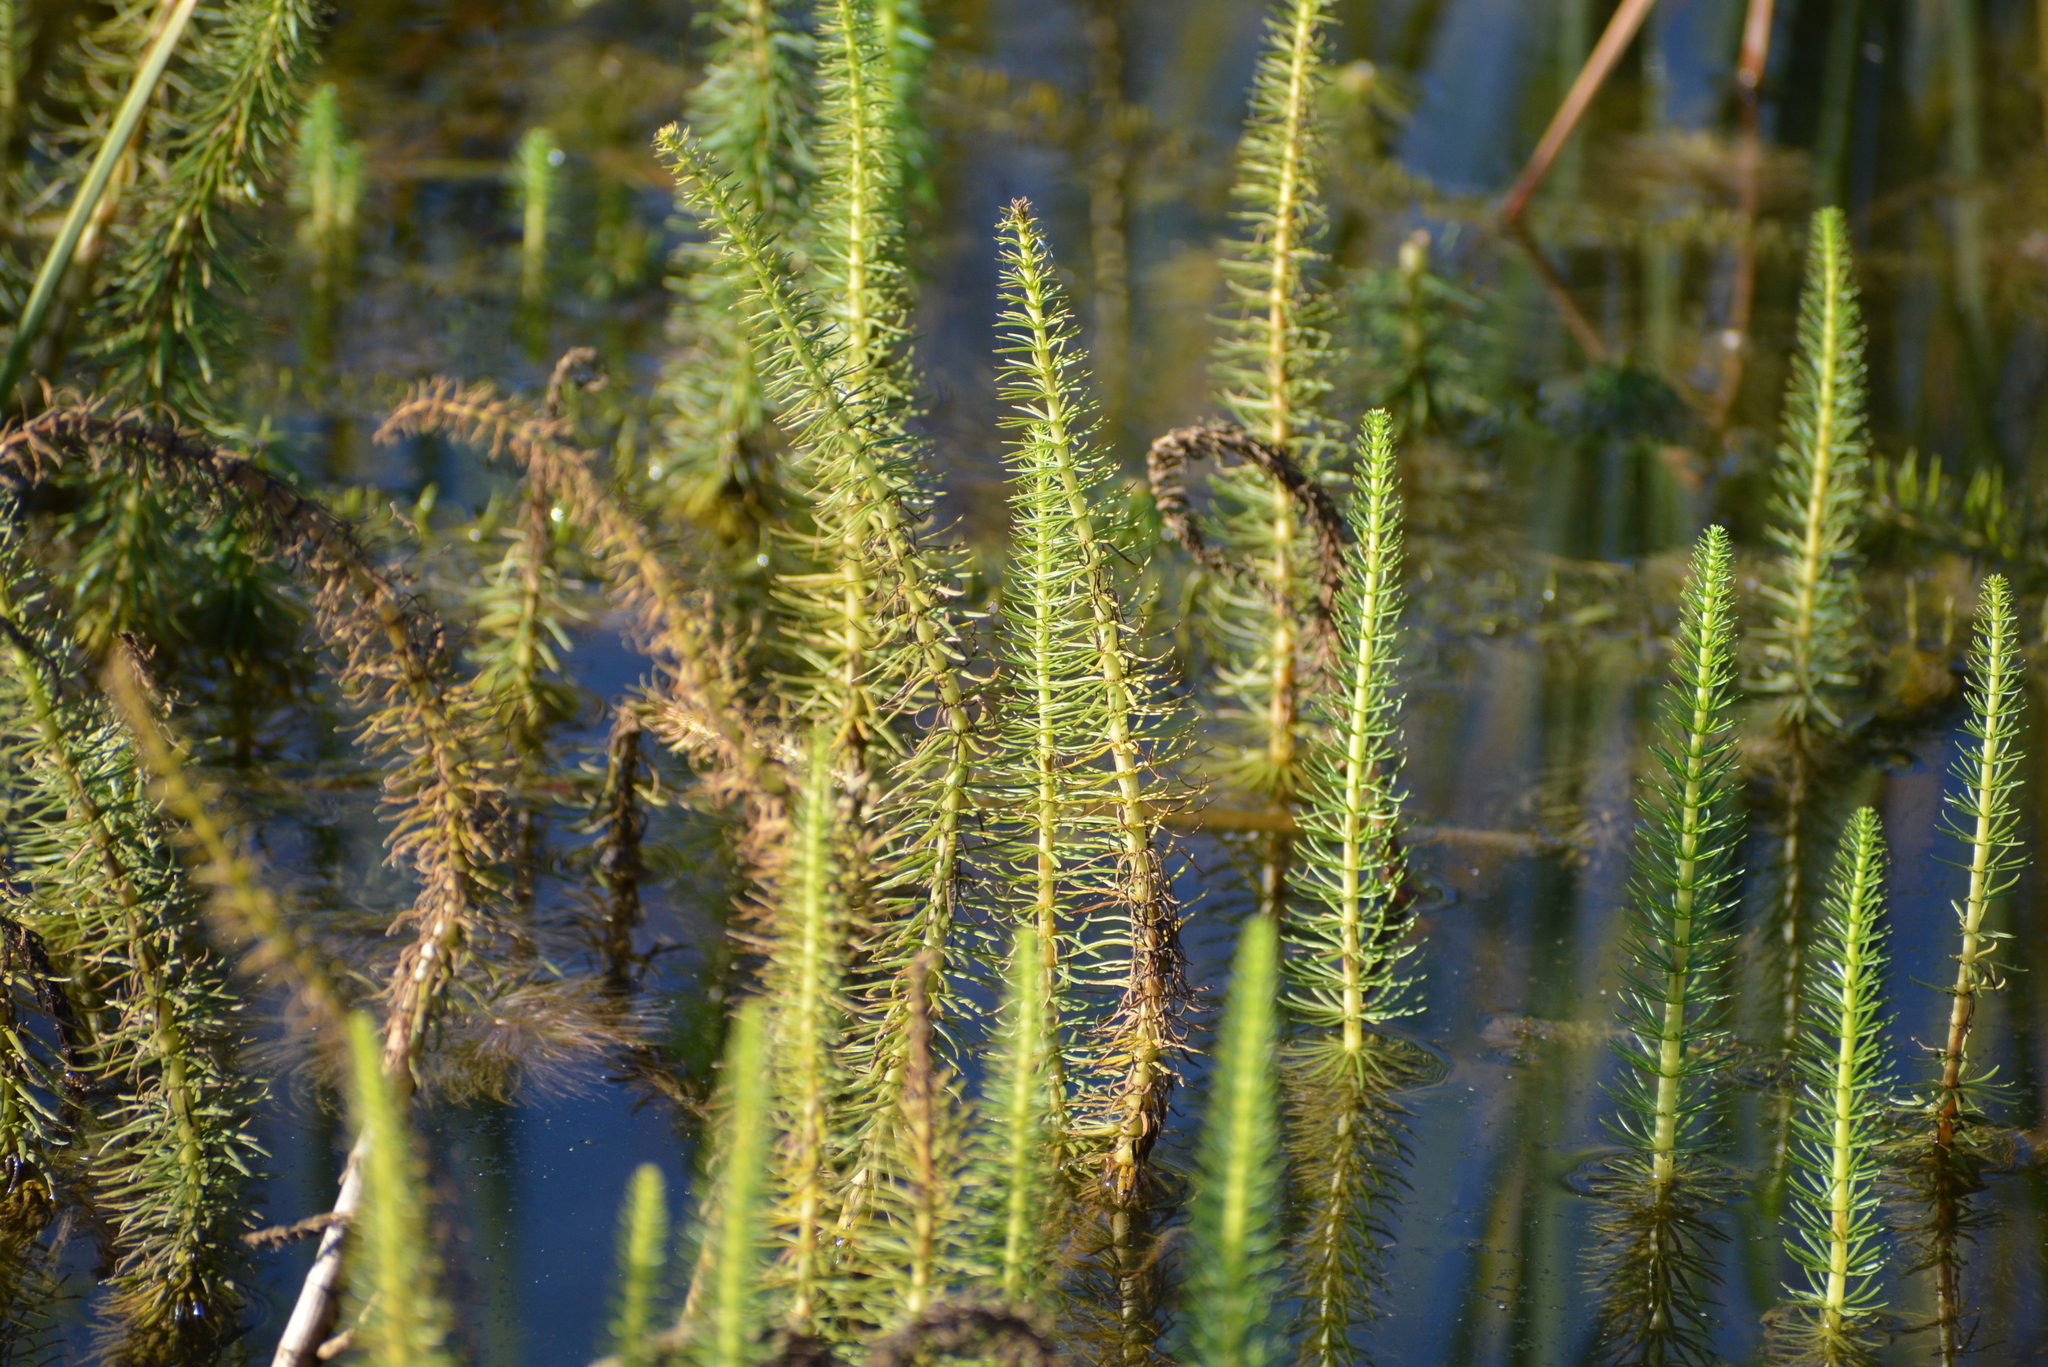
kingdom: Plantae
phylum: Tracheophyta
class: Magnoliopsida
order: Lamiales
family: Plantaginaceae
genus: Hippuris
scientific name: Hippuris vulgaris
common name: Mare's-tail
